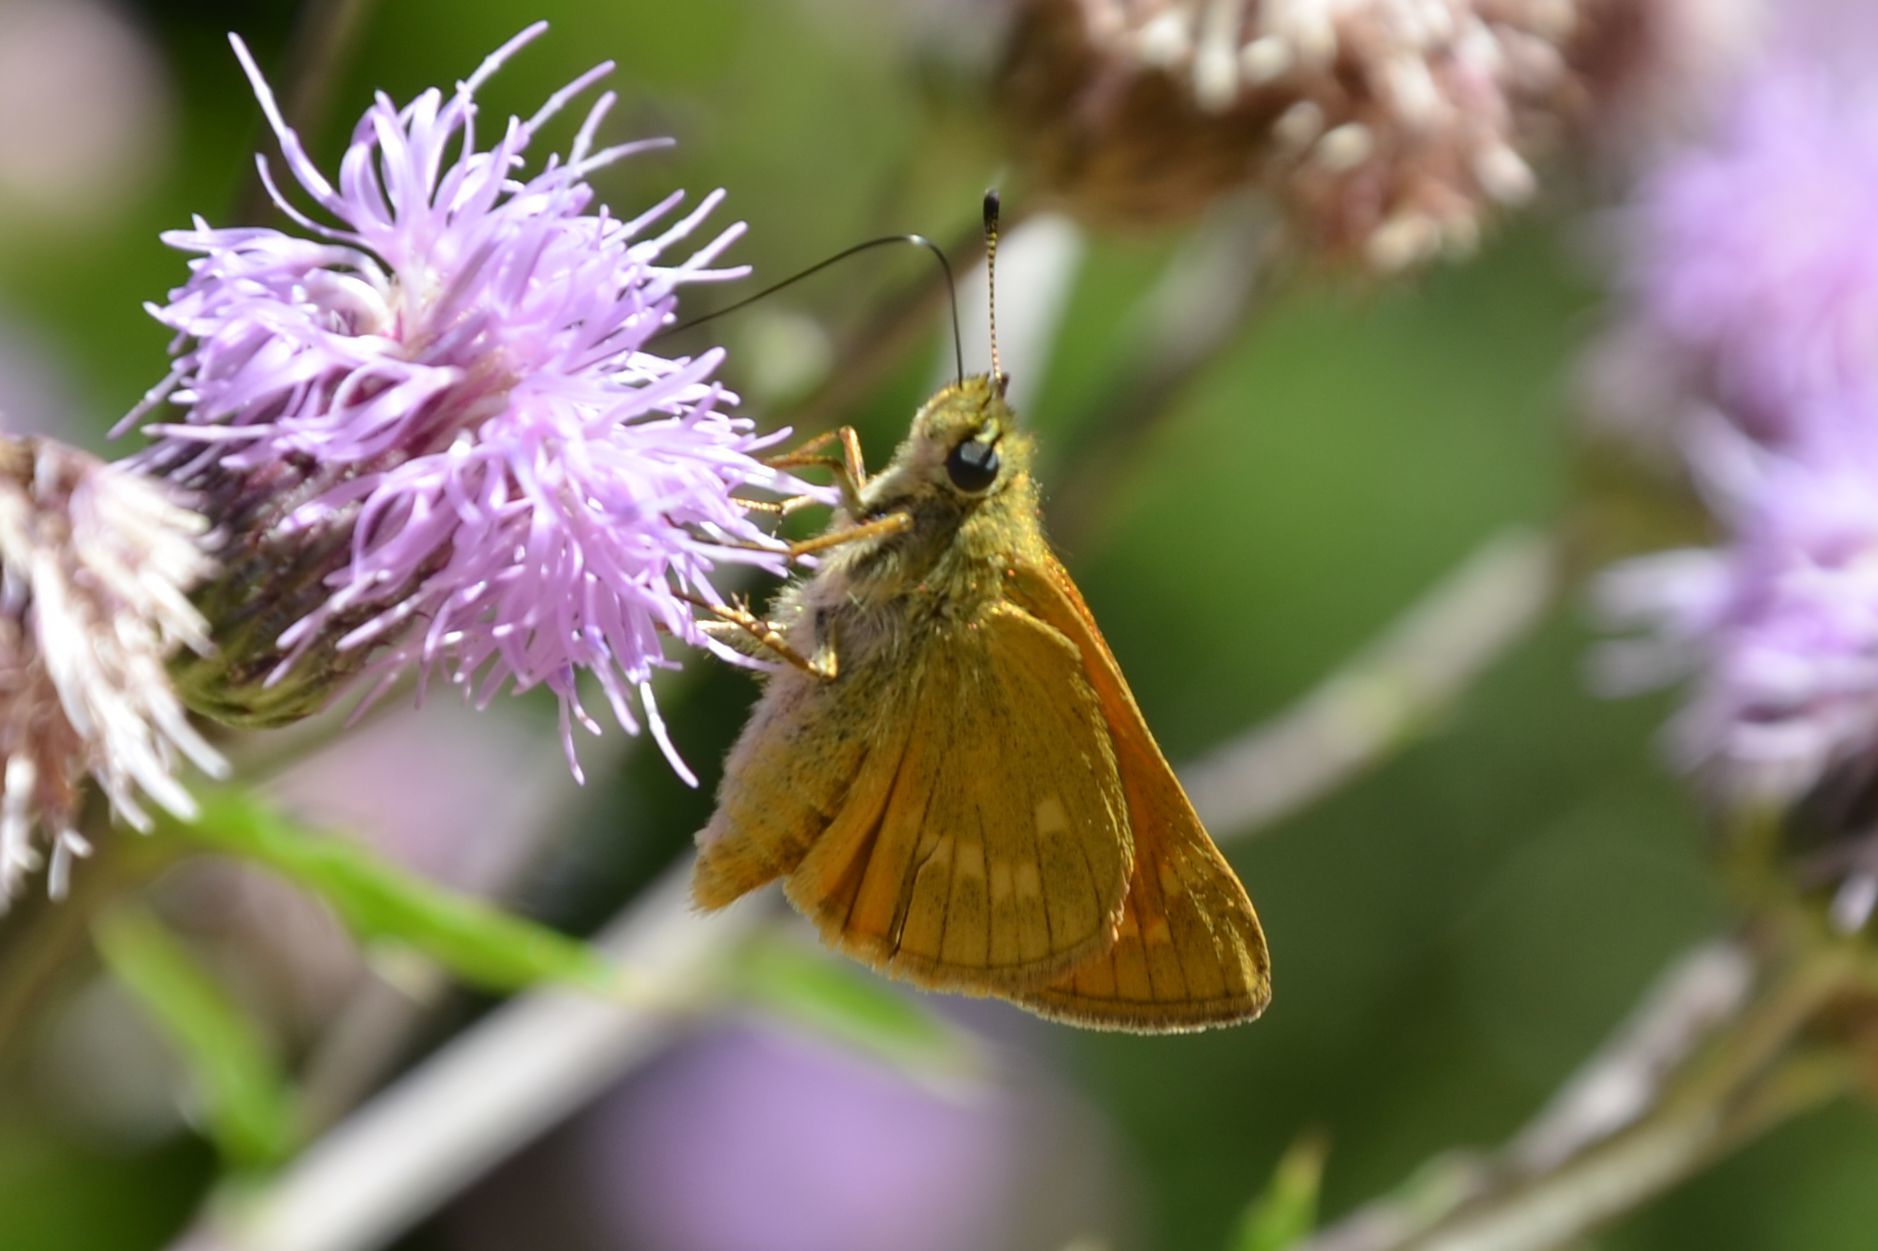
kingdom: Animalia
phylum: Arthropoda
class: Insecta
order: Lepidoptera
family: Hesperiidae
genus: Ochlodes
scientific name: Ochlodes venata
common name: Large skipper
